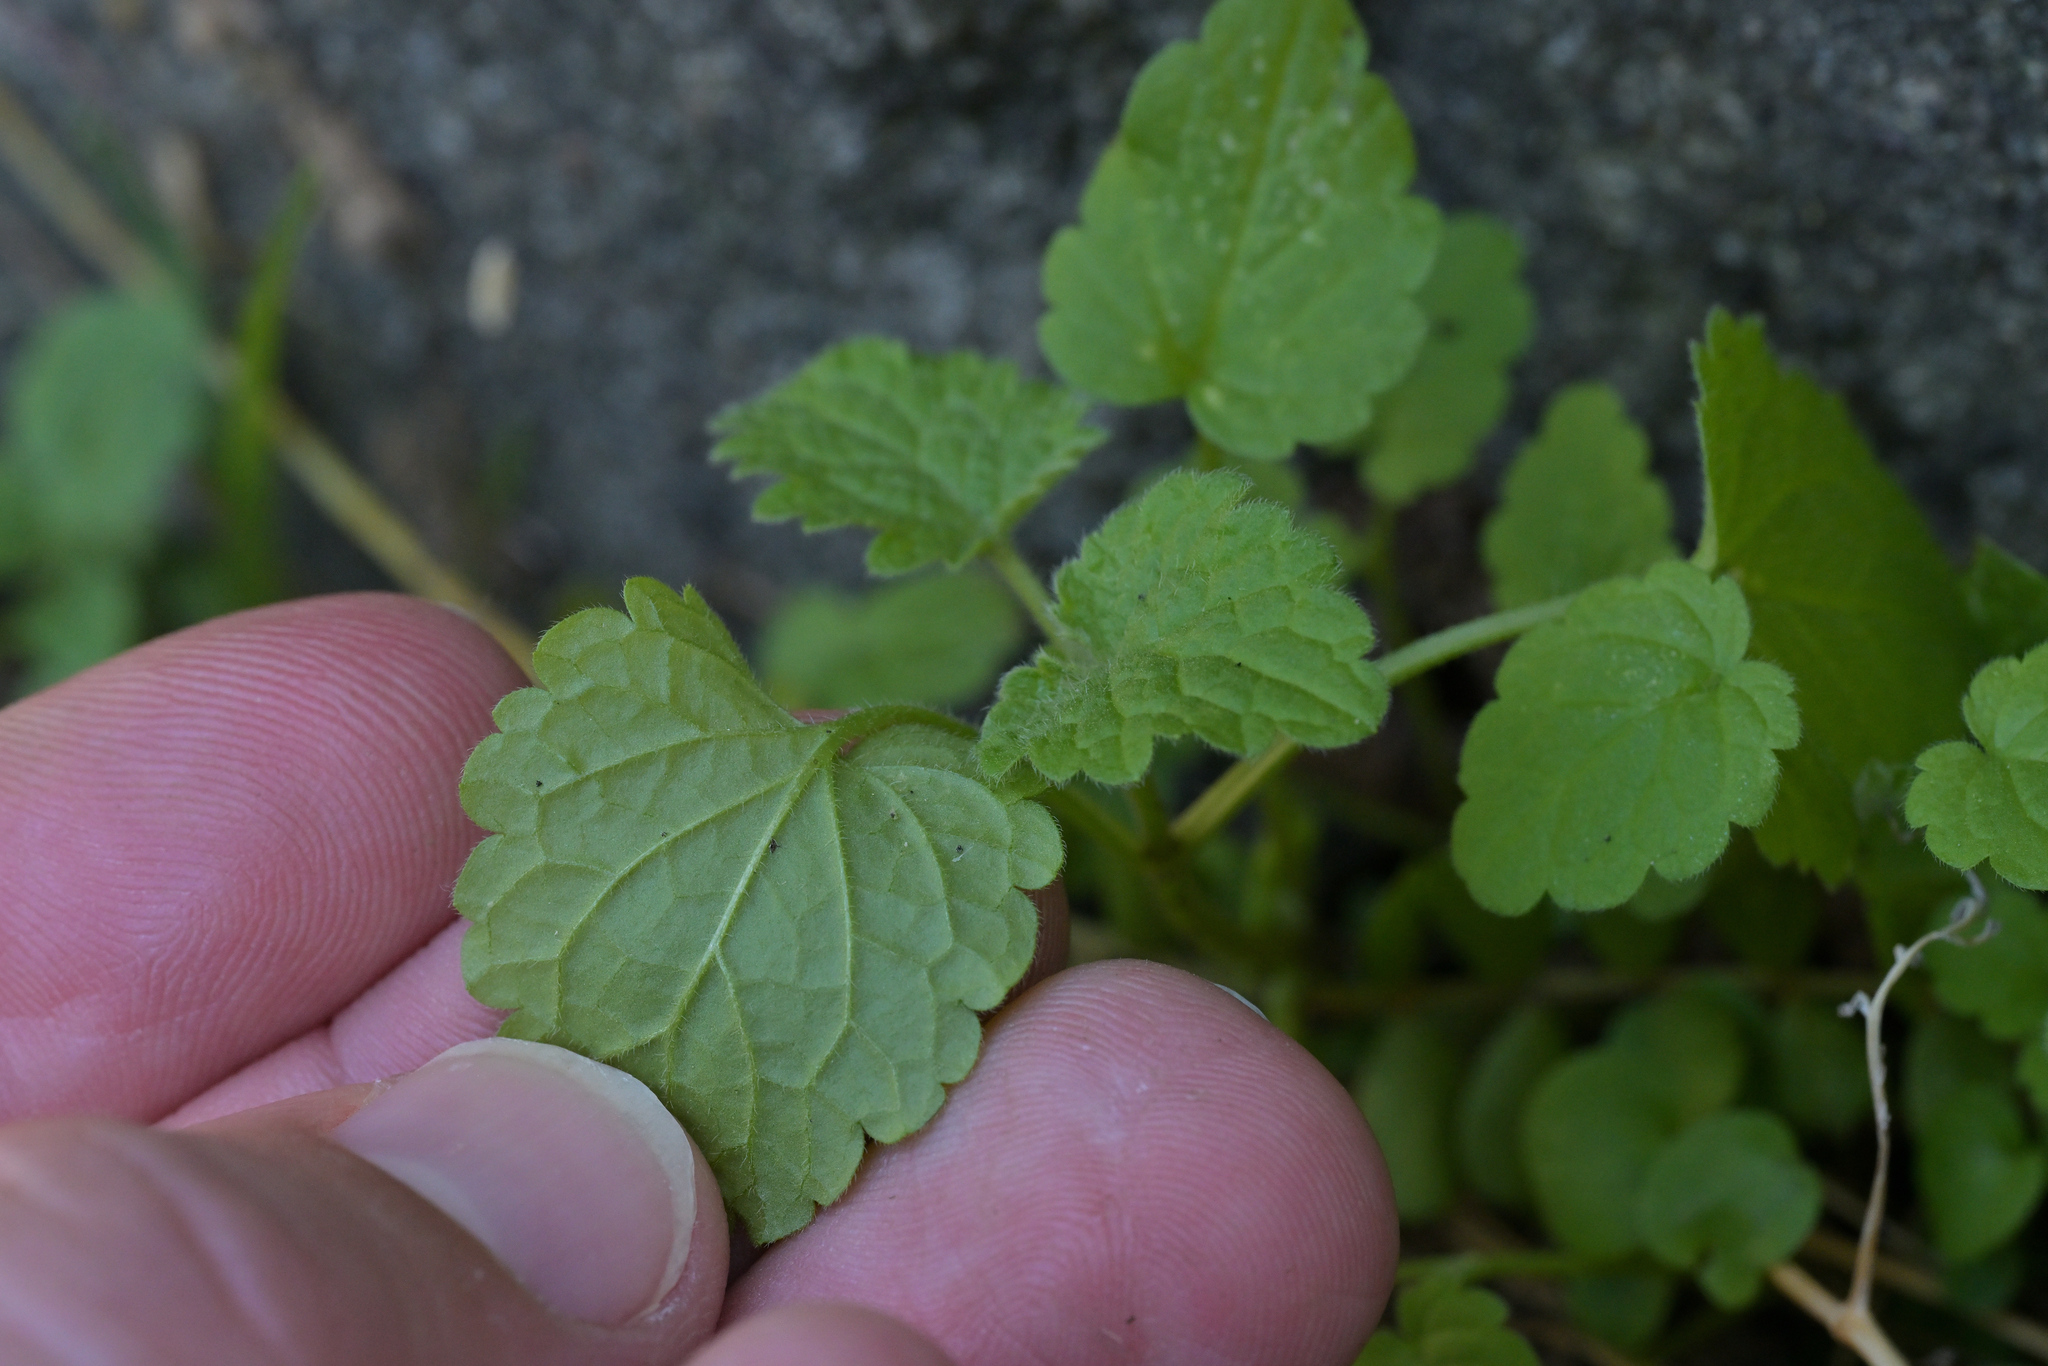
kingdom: Plantae
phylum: Tracheophyta
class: Magnoliopsida
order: Lamiales
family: Lamiaceae
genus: Lamium
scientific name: Lamium purpureum
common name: Red dead-nettle
